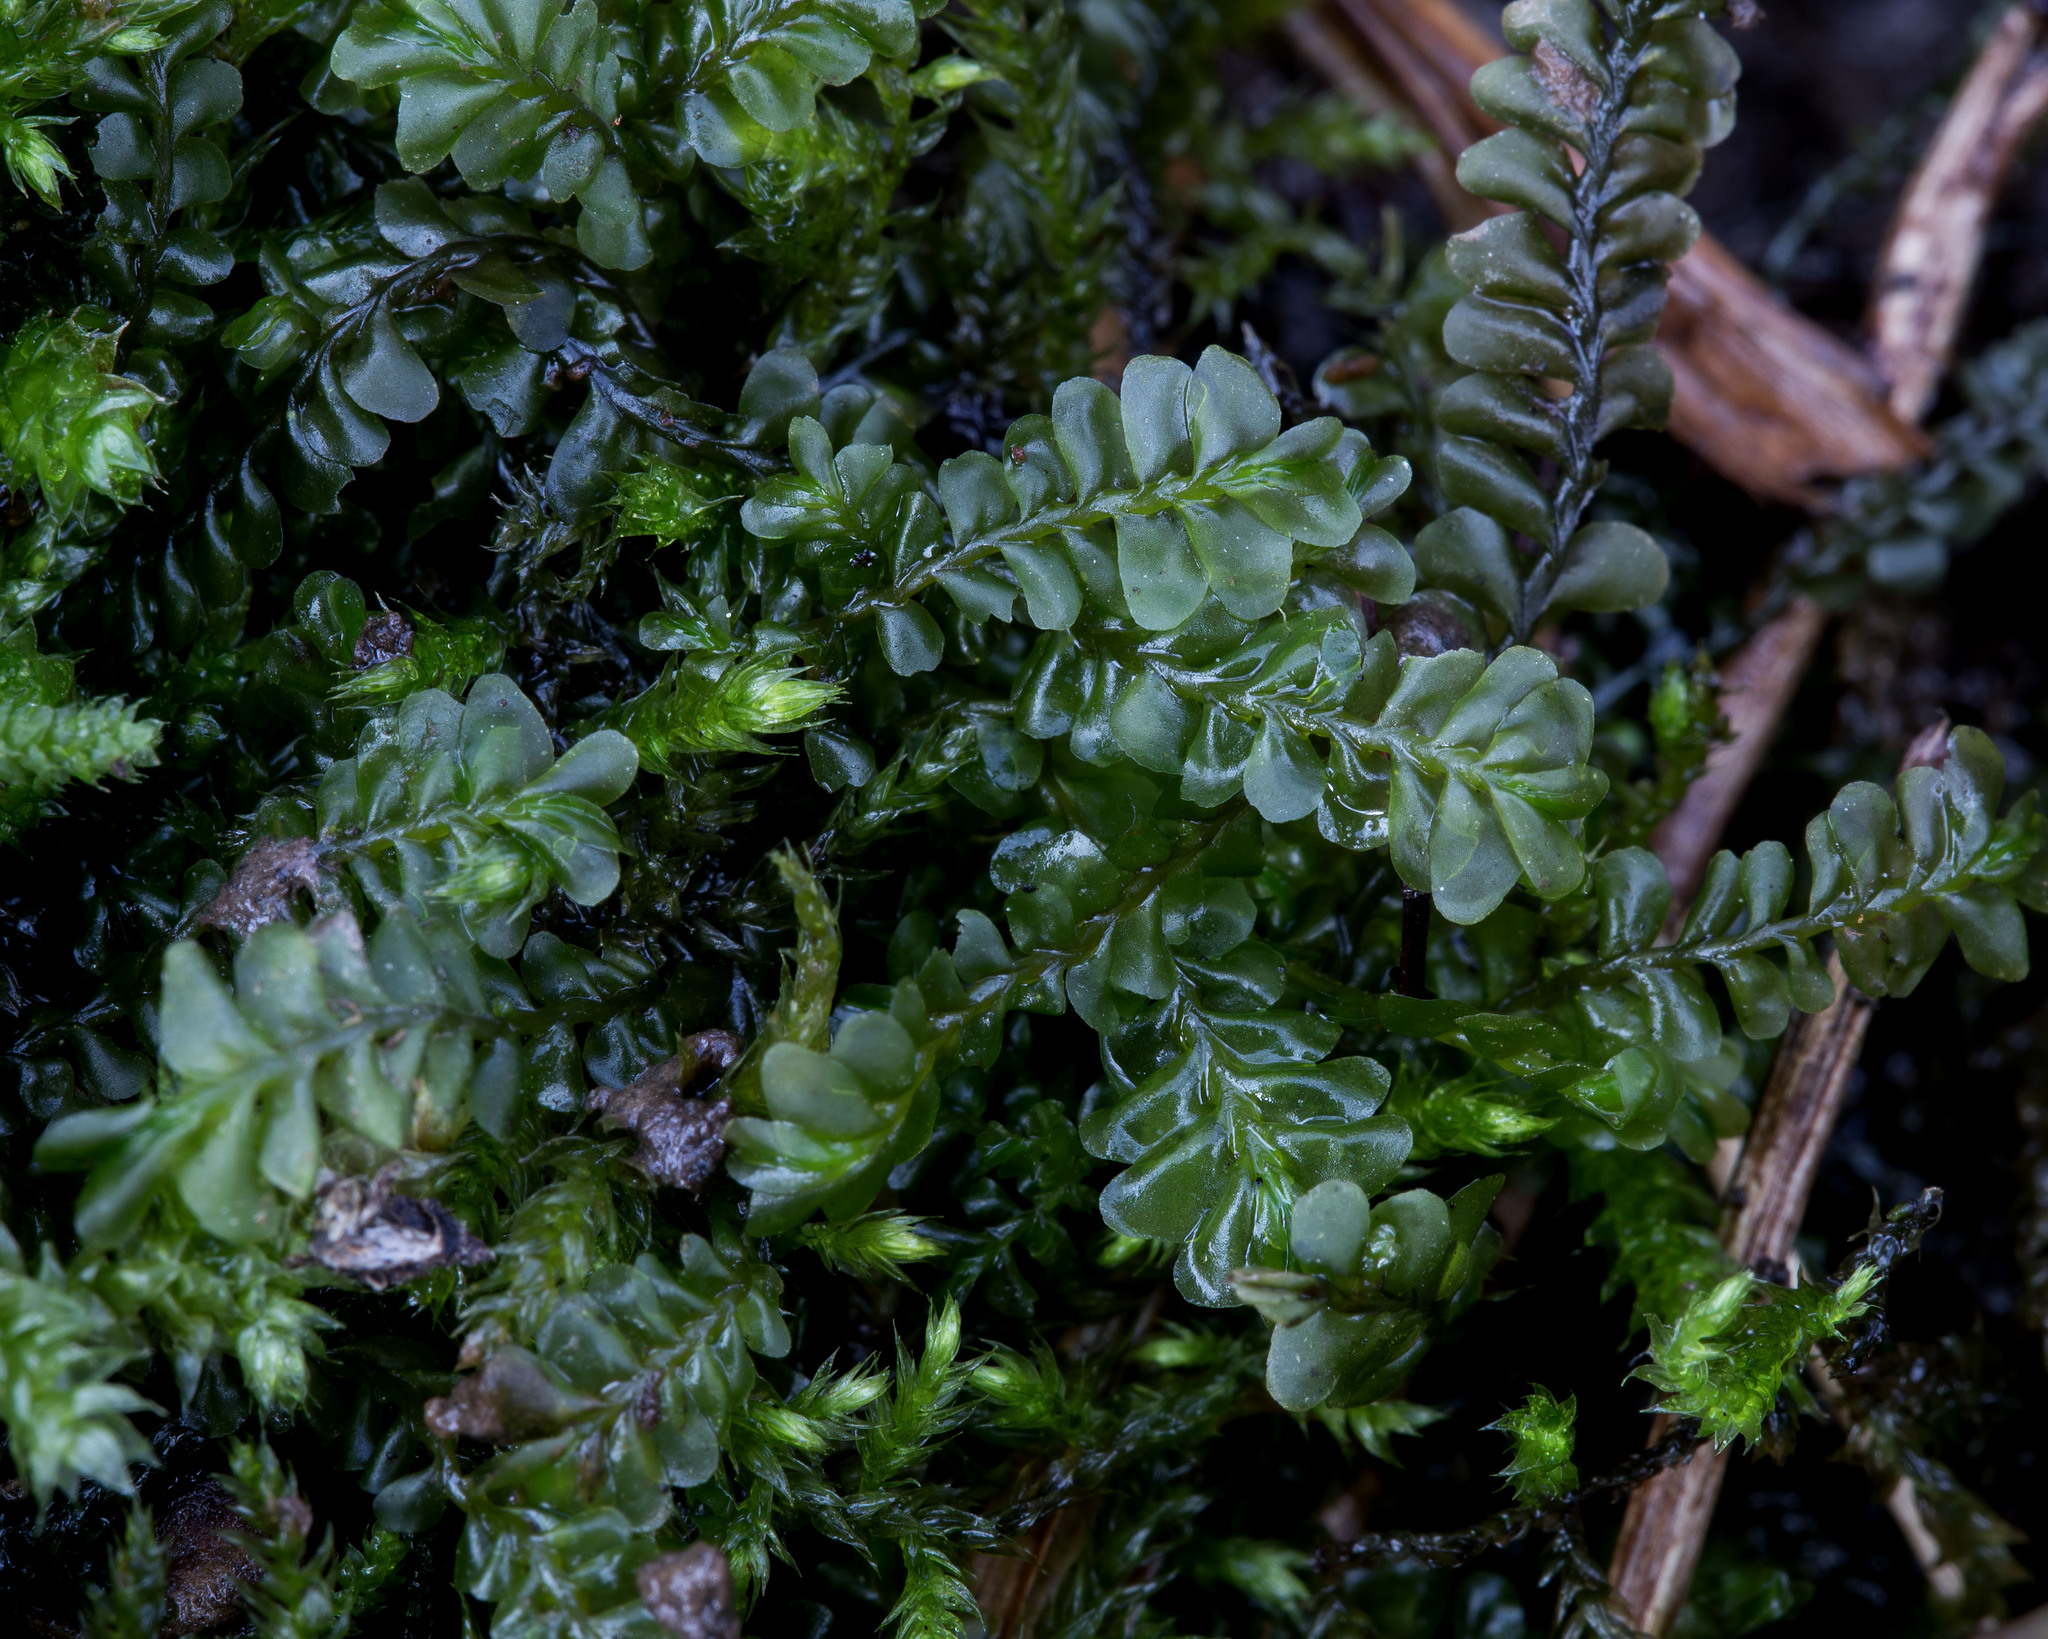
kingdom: Plantae
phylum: Marchantiophyta
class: Jungermanniopsida
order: Jungermanniales
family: Plagiochilaceae
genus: Plagiochila
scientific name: Plagiochila porelloides
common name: Lesser featherwort
